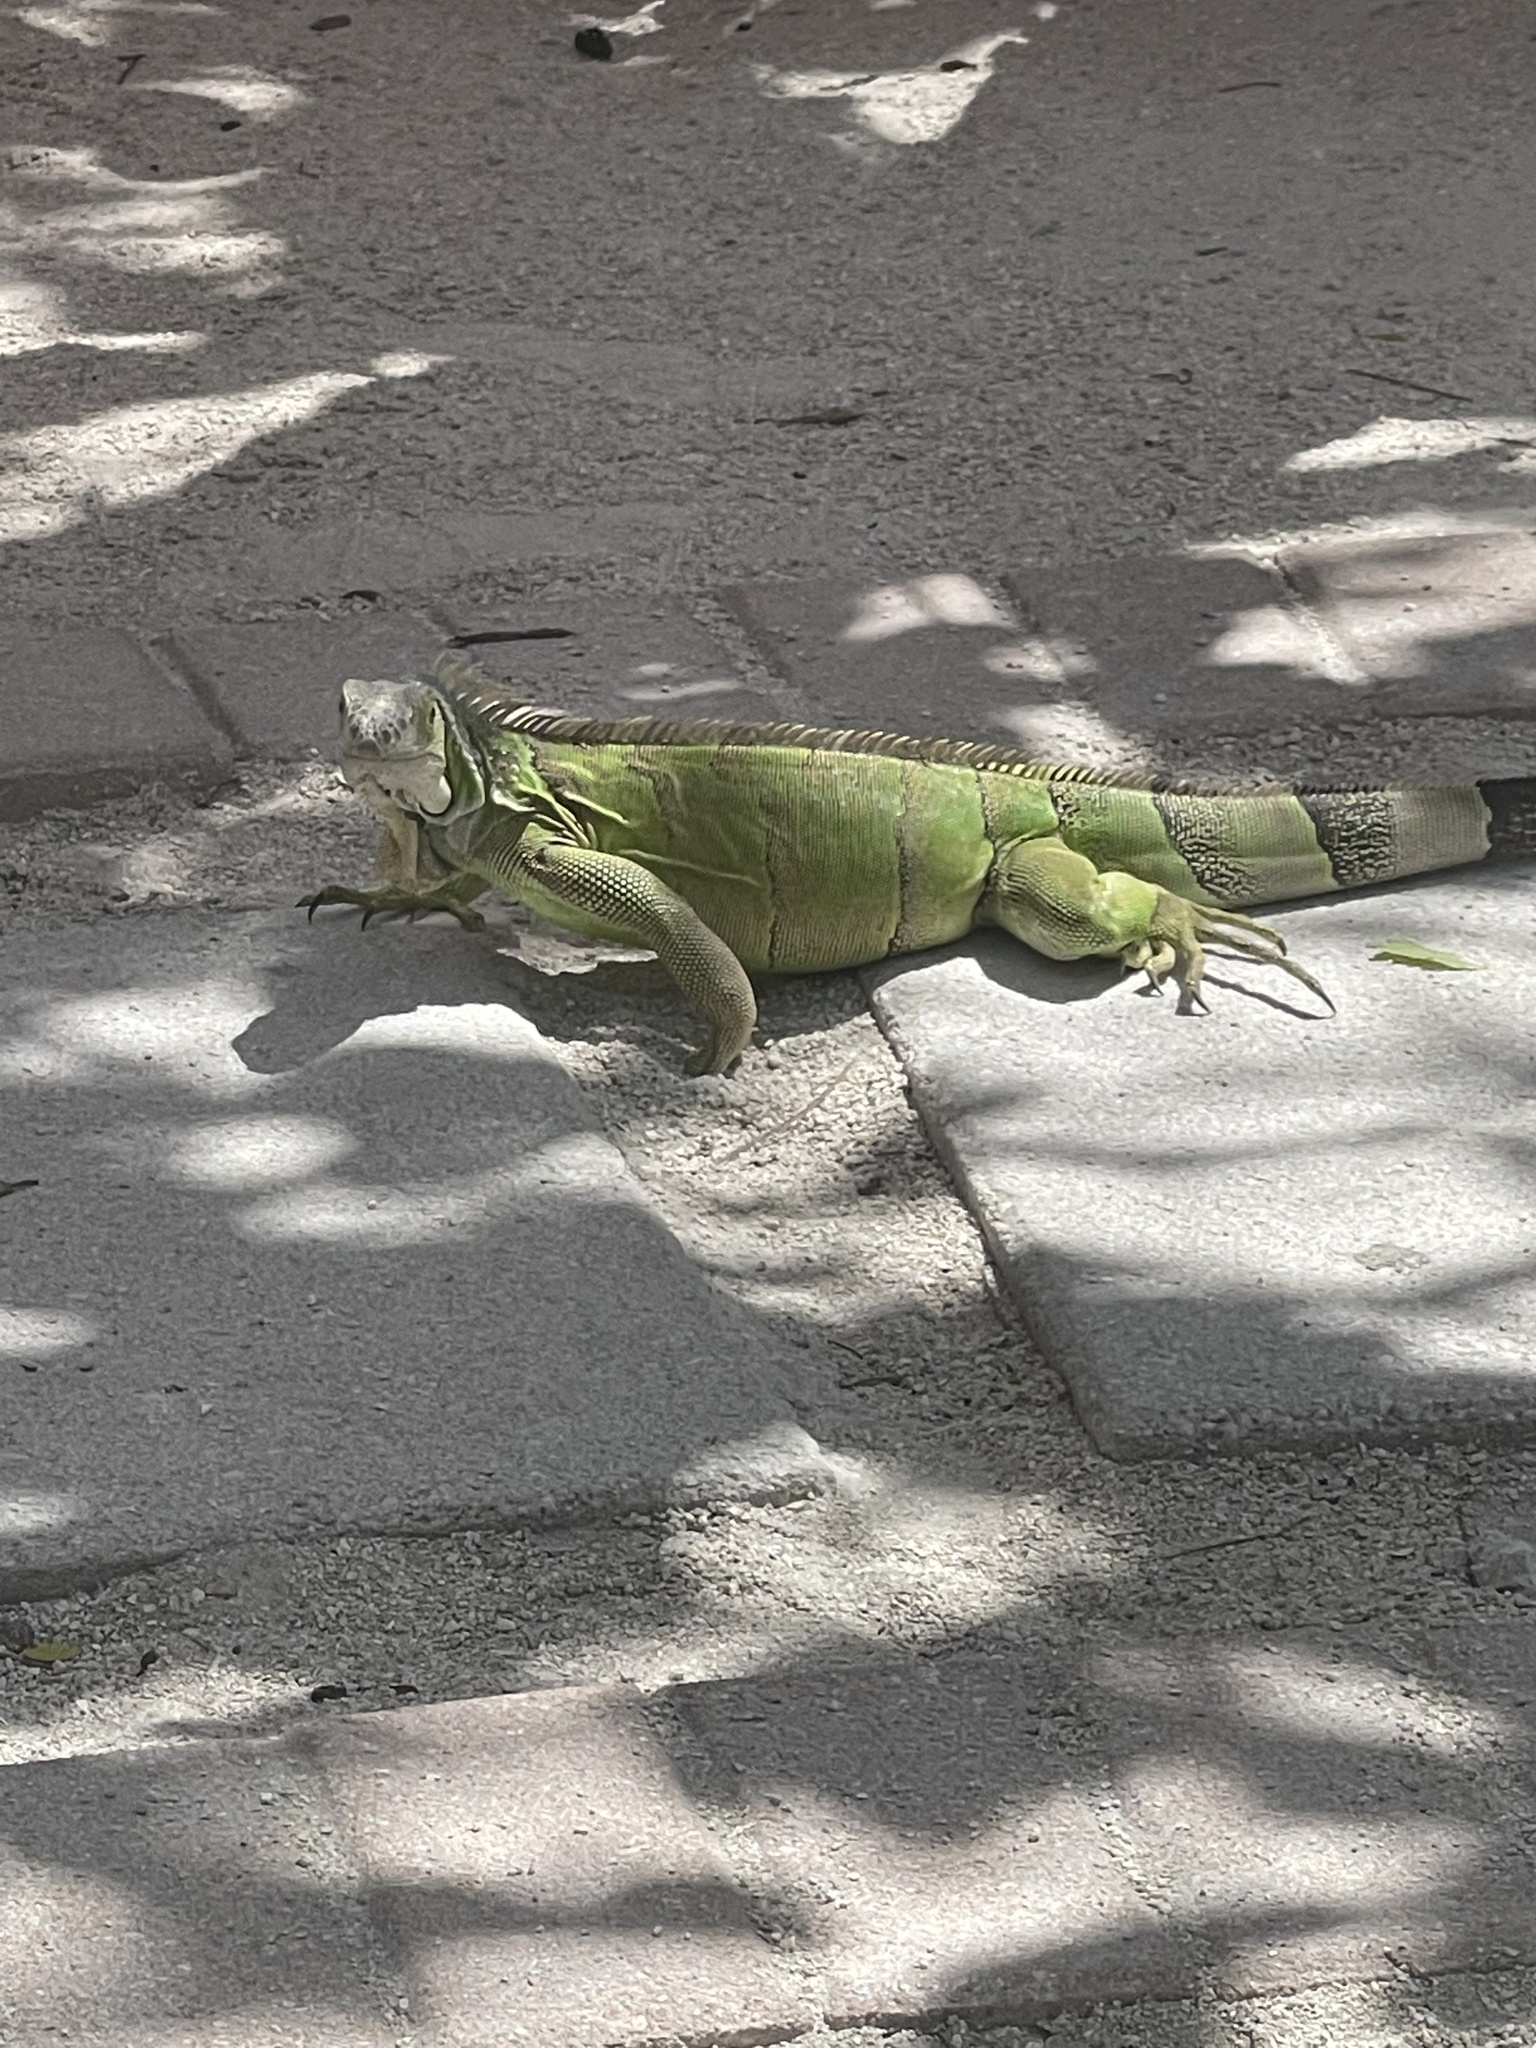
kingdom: Animalia
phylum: Chordata
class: Squamata
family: Iguanidae
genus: Iguana
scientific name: Iguana iguana
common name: Green iguana
